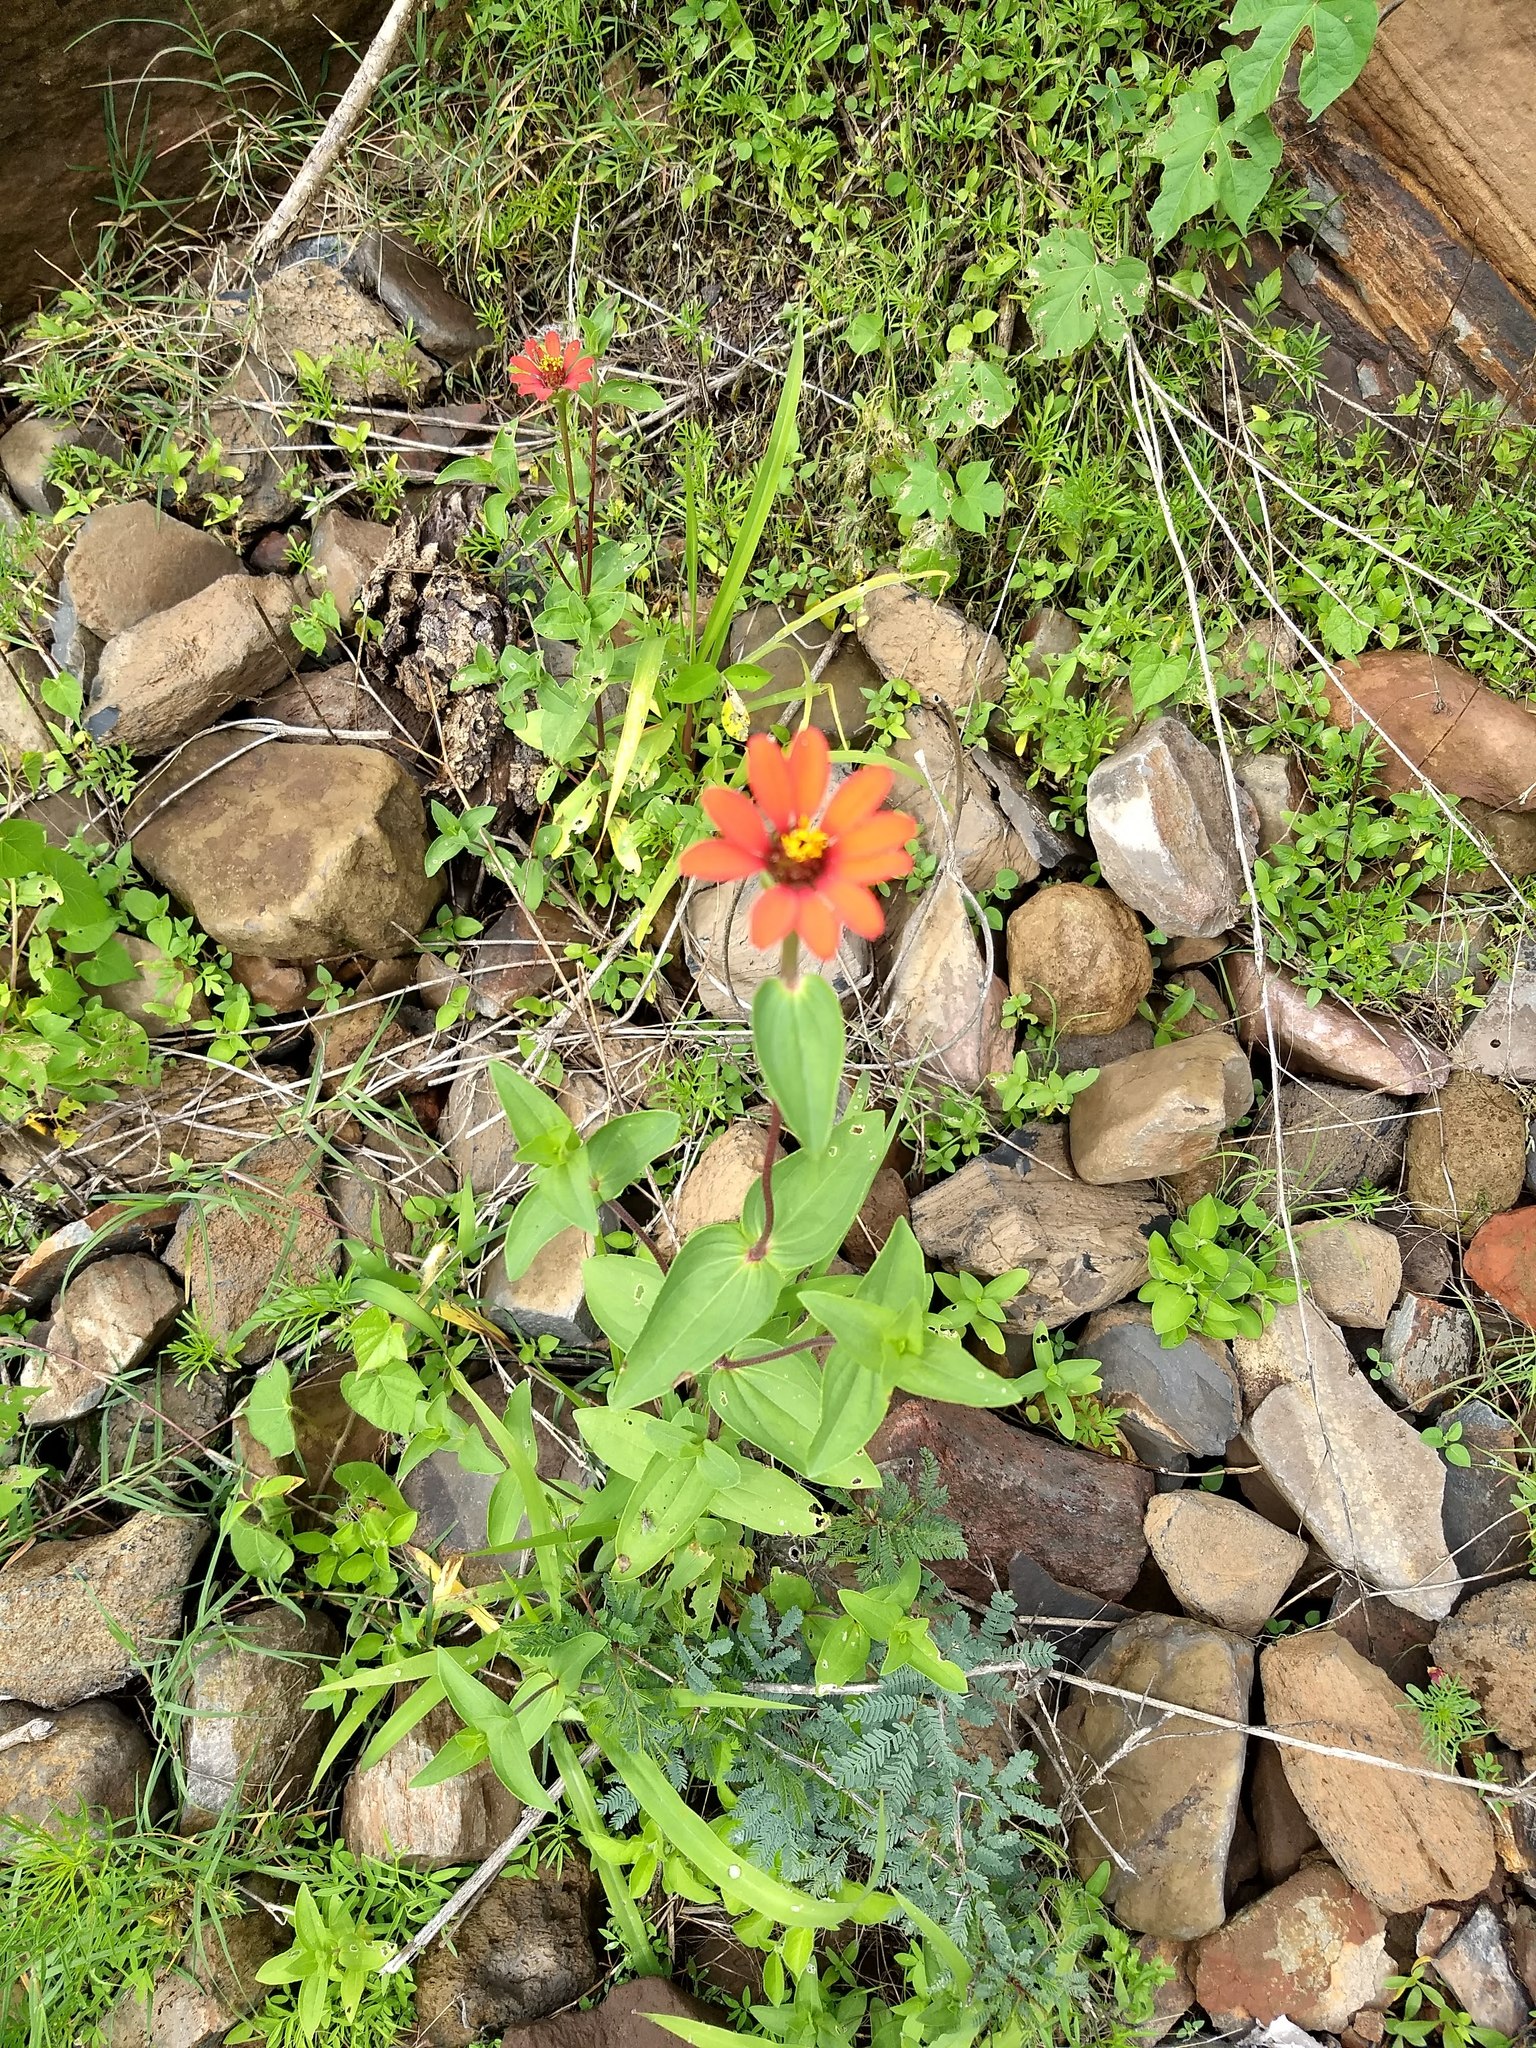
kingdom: Plantae
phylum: Tracheophyta
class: Magnoliopsida
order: Asterales
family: Asteraceae
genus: Zinnia
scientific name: Zinnia peruviana
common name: Peruvian zinnia
